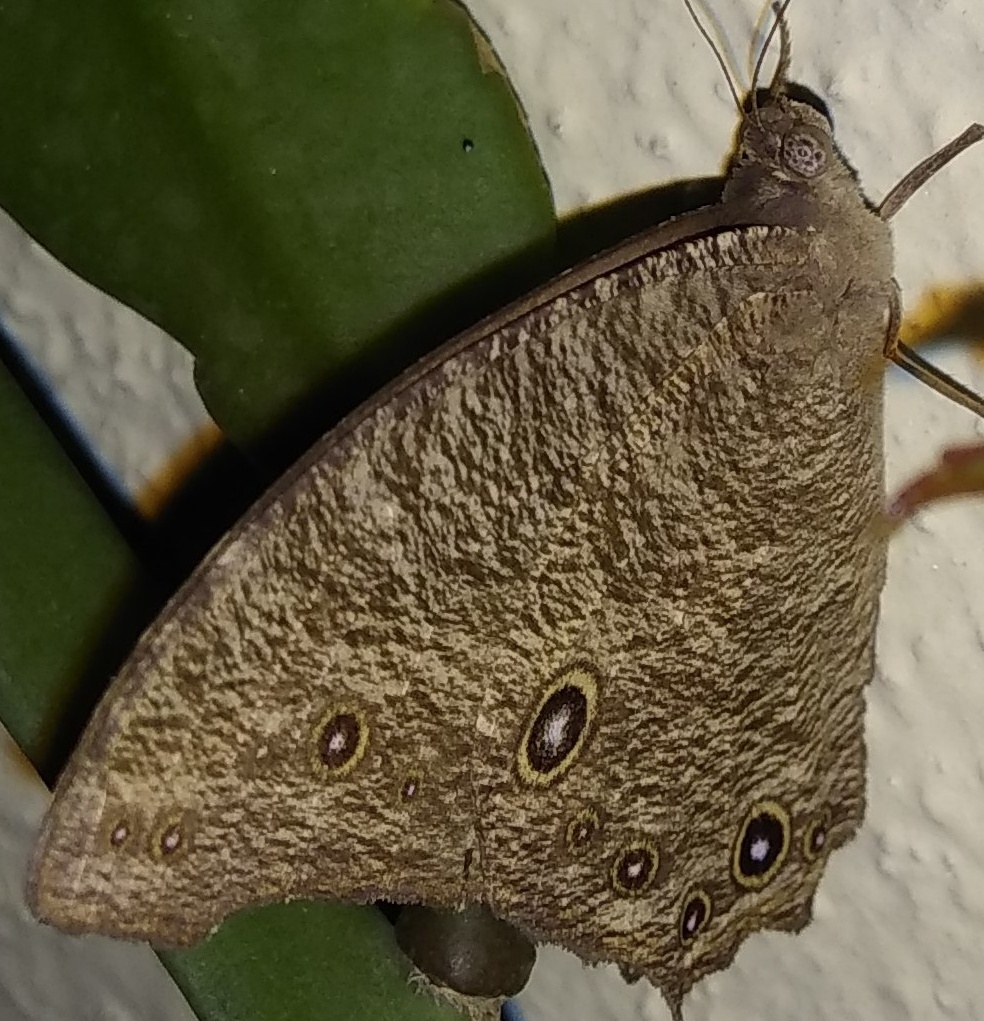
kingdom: Animalia
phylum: Arthropoda
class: Insecta
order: Lepidoptera
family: Nymphalidae
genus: Melanitis
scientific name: Melanitis leda
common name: Twilight brown
